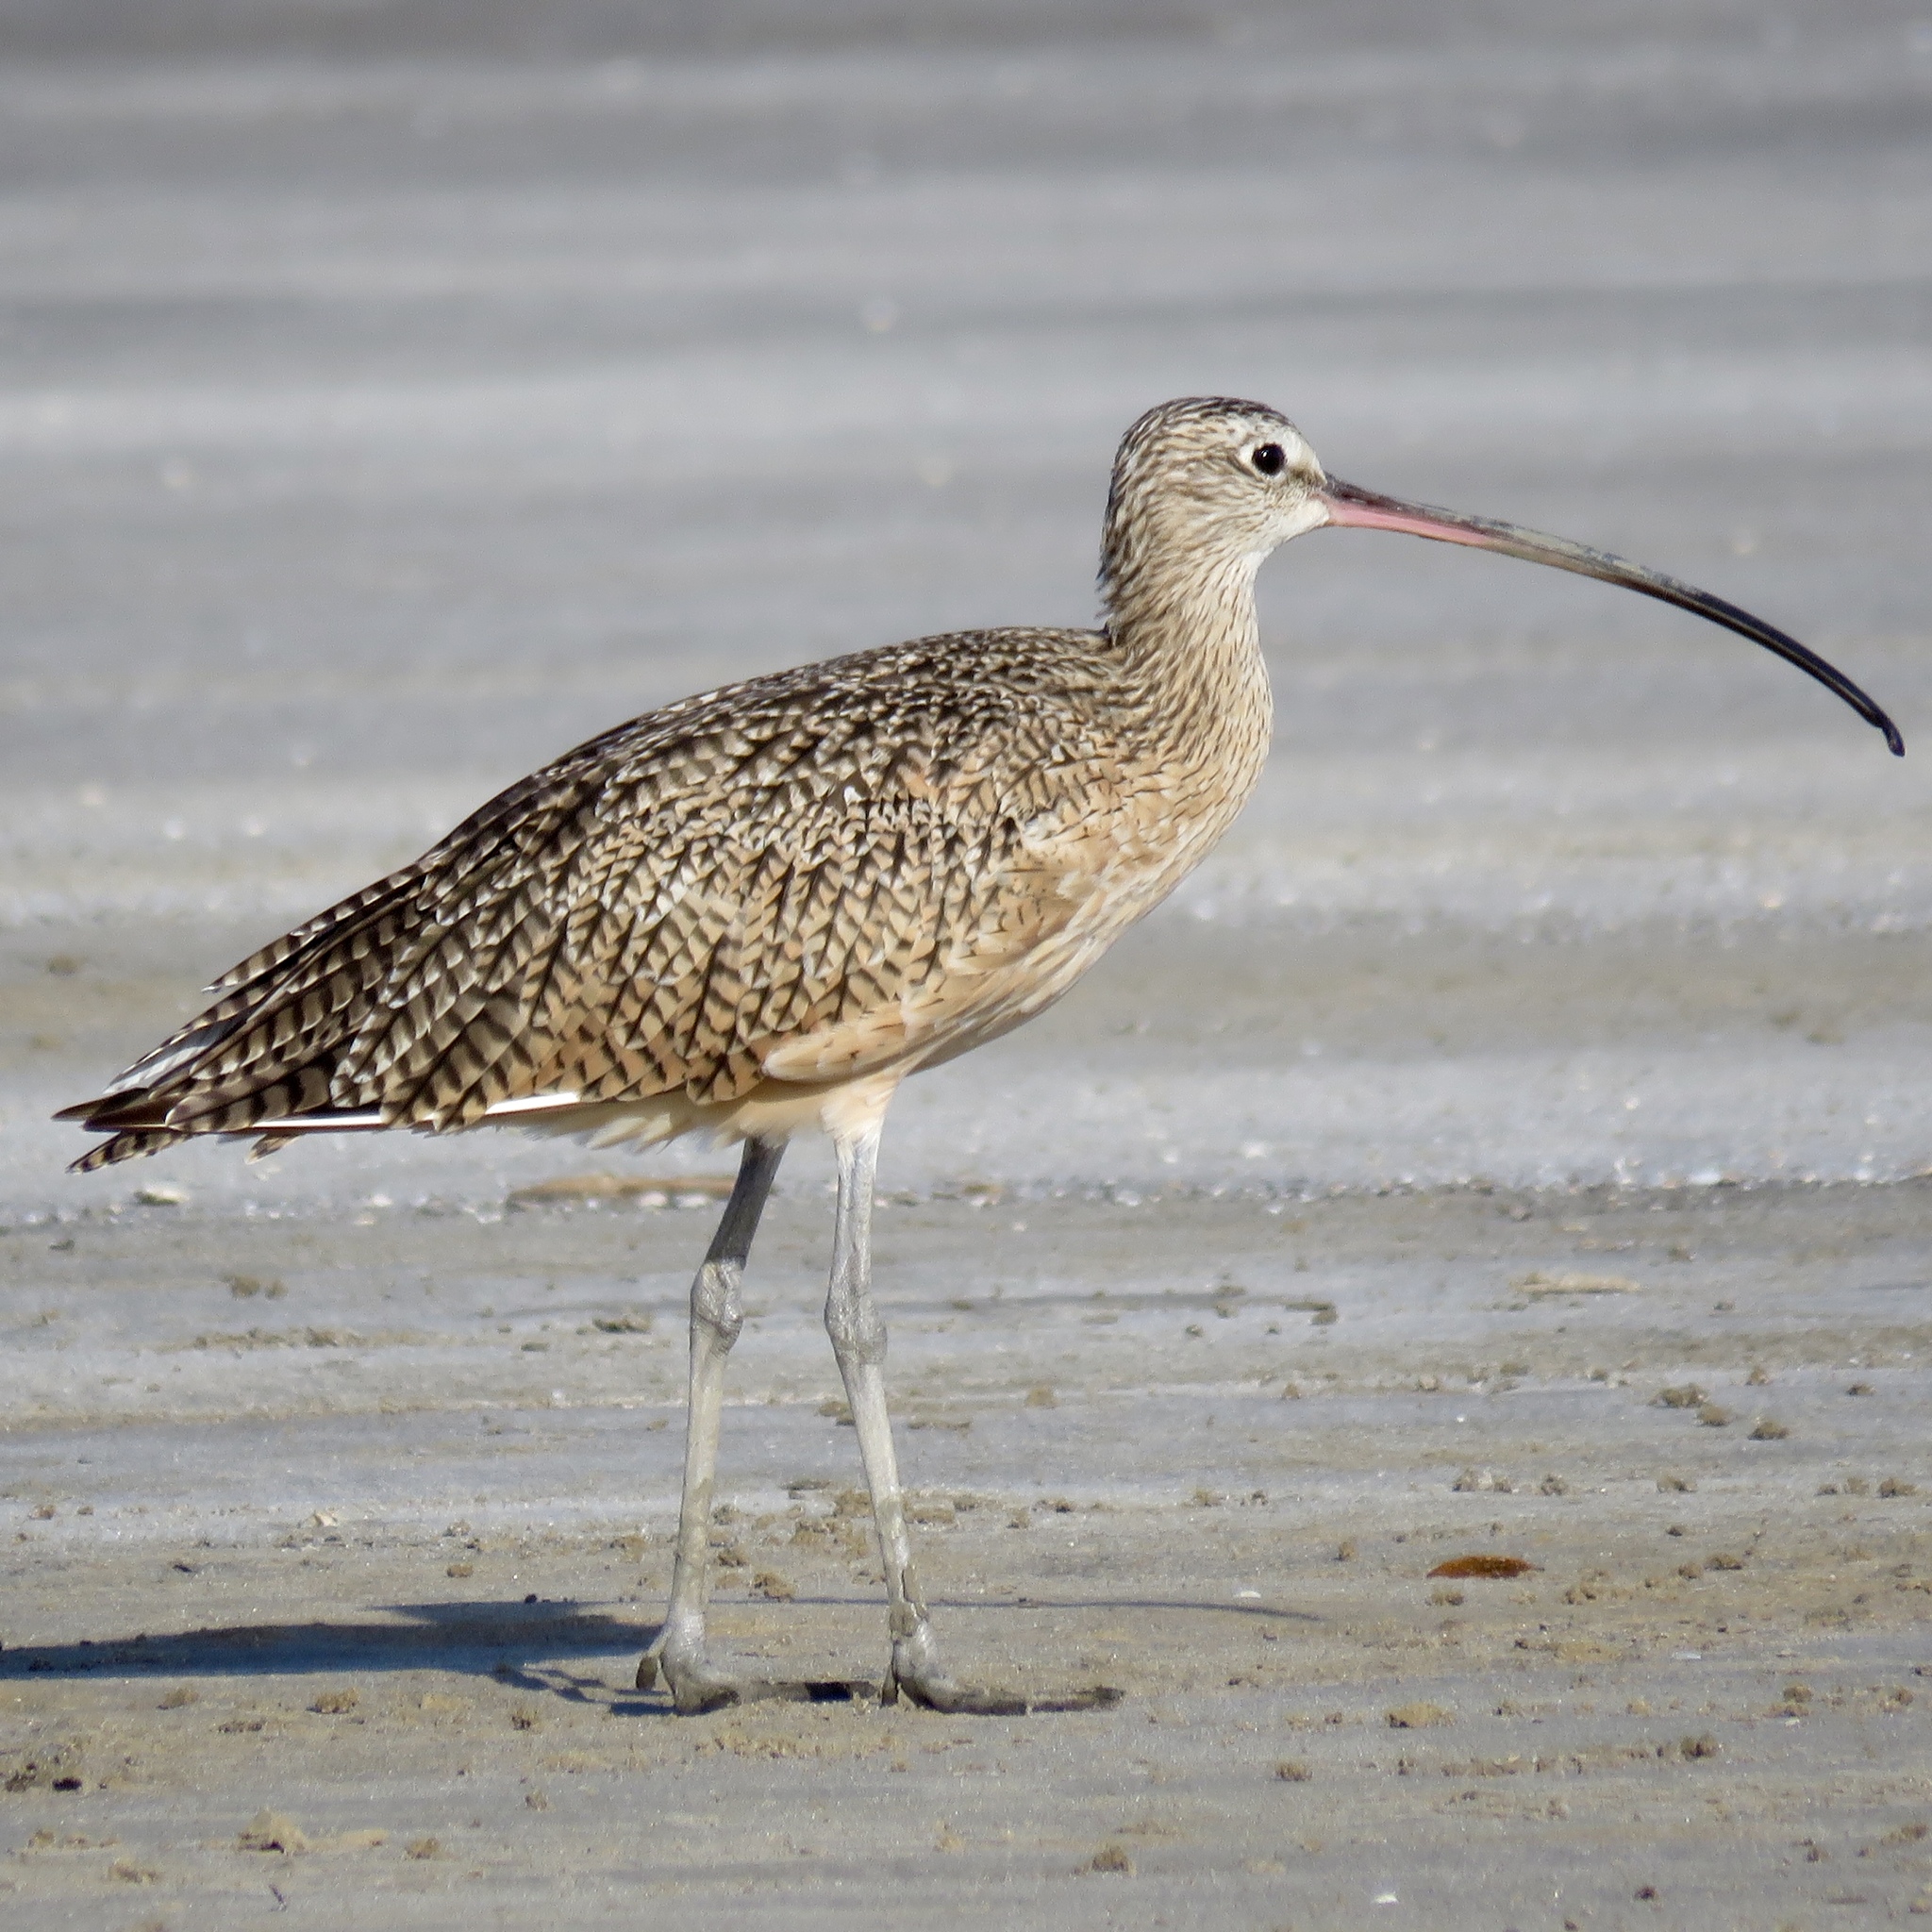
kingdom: Animalia
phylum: Chordata
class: Aves
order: Charadriiformes
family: Scolopacidae
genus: Numenius
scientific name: Numenius americanus
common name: Long-billed curlew
